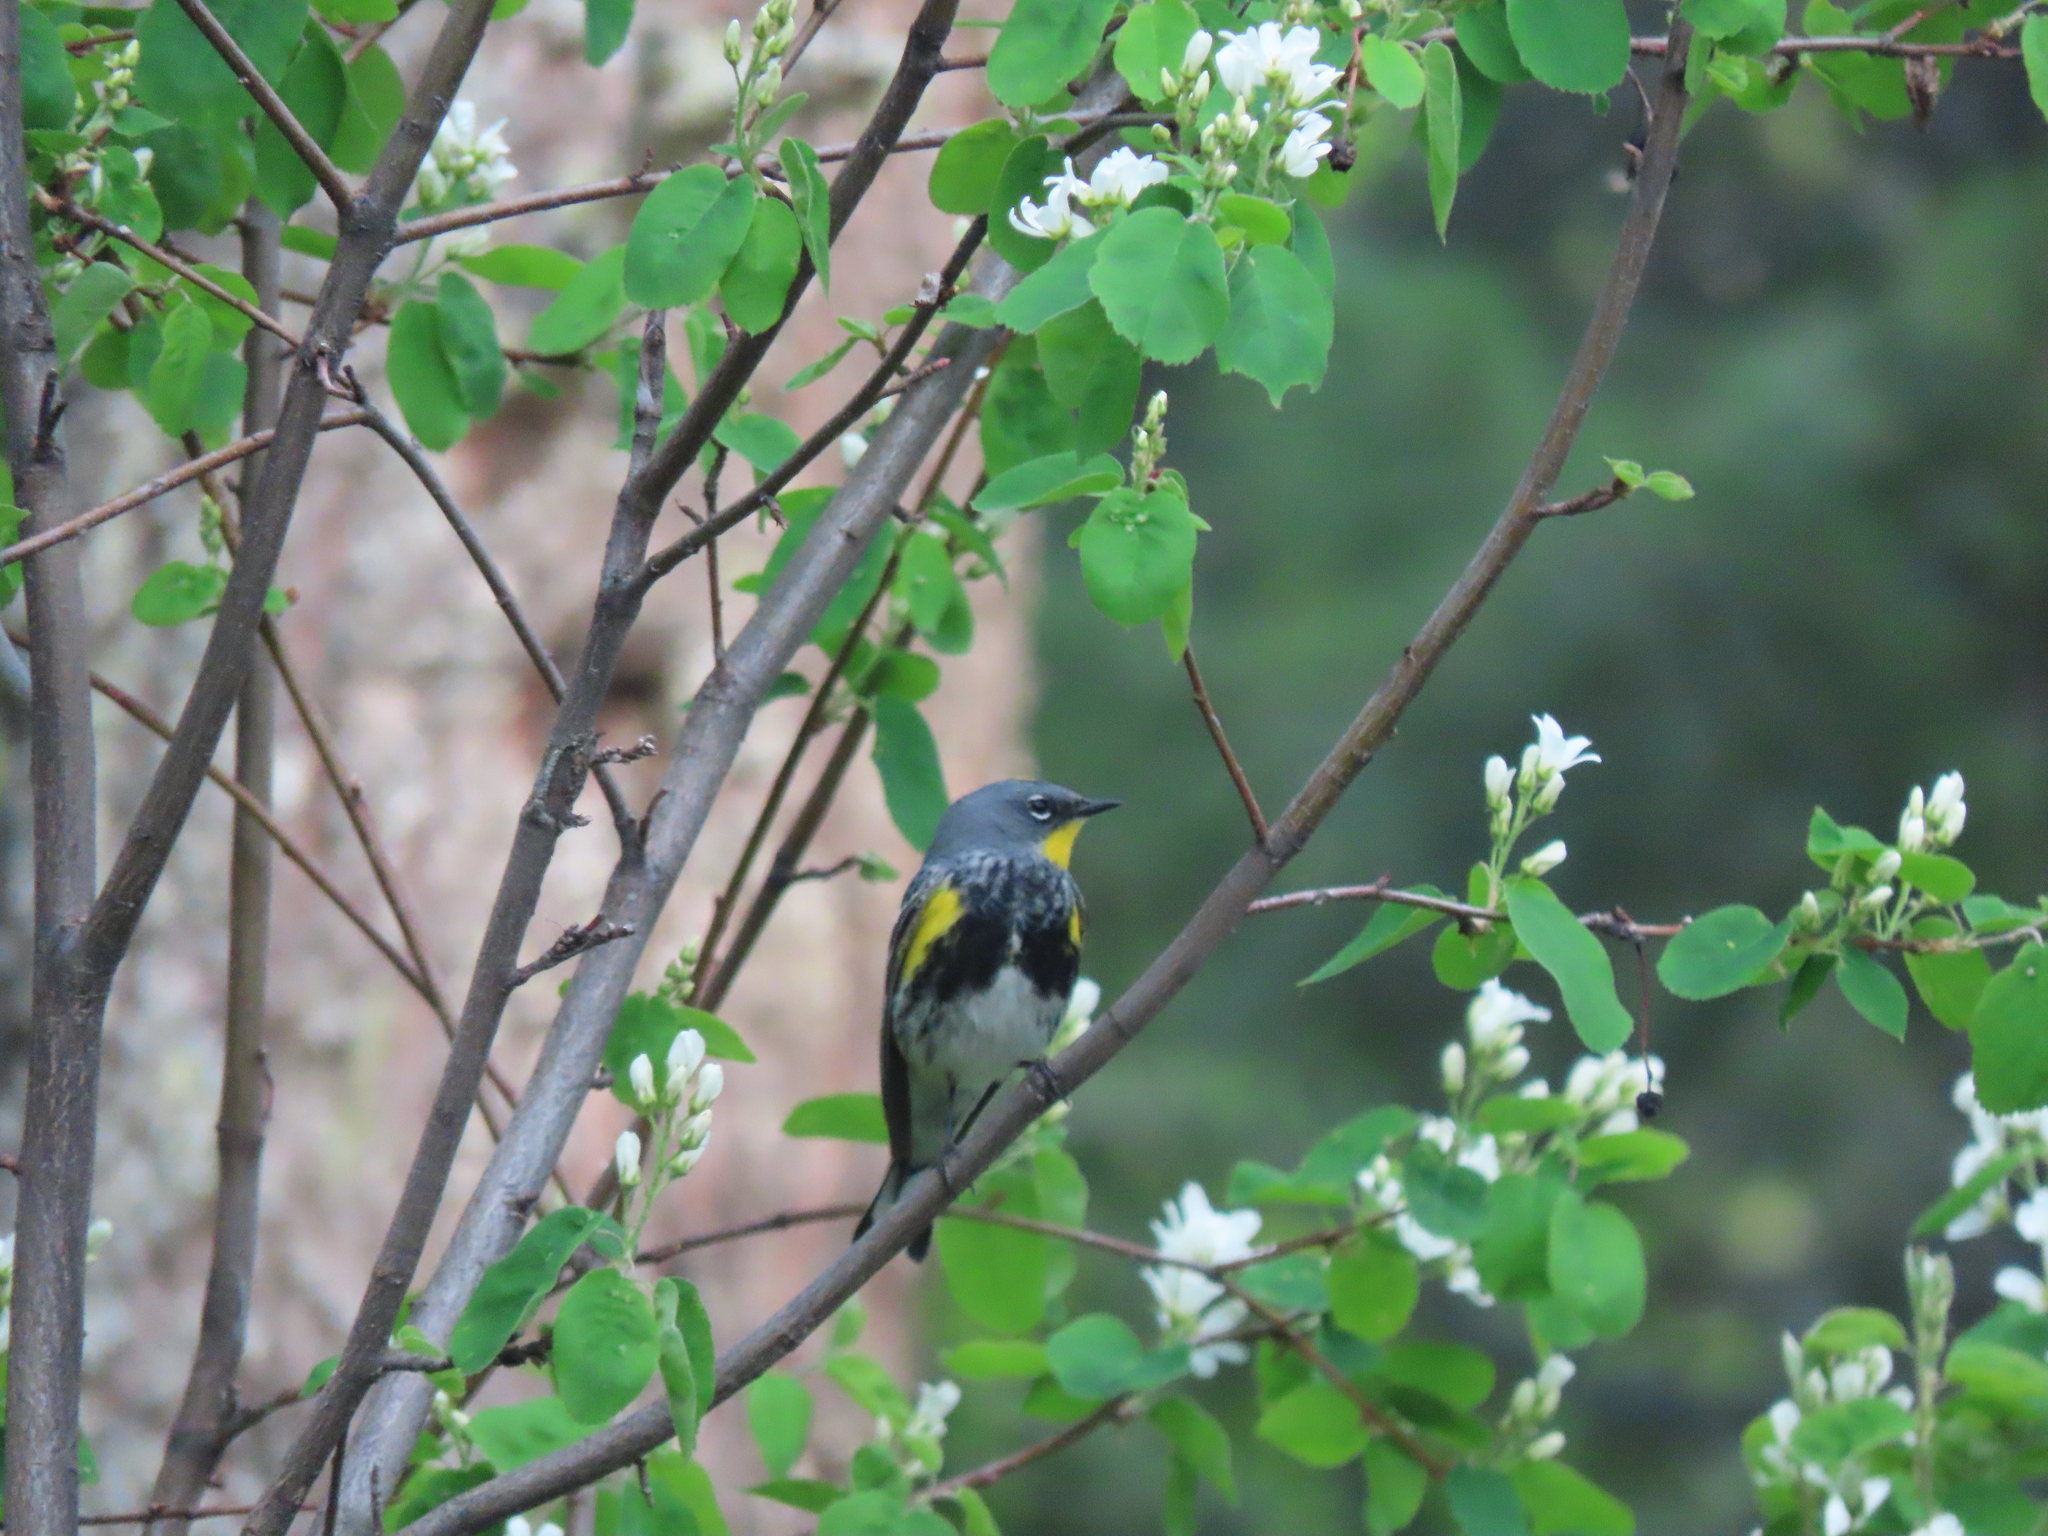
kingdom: Animalia
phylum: Chordata
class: Aves
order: Passeriformes
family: Parulidae
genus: Setophaga
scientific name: Setophaga auduboni
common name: Audubon's warbler
